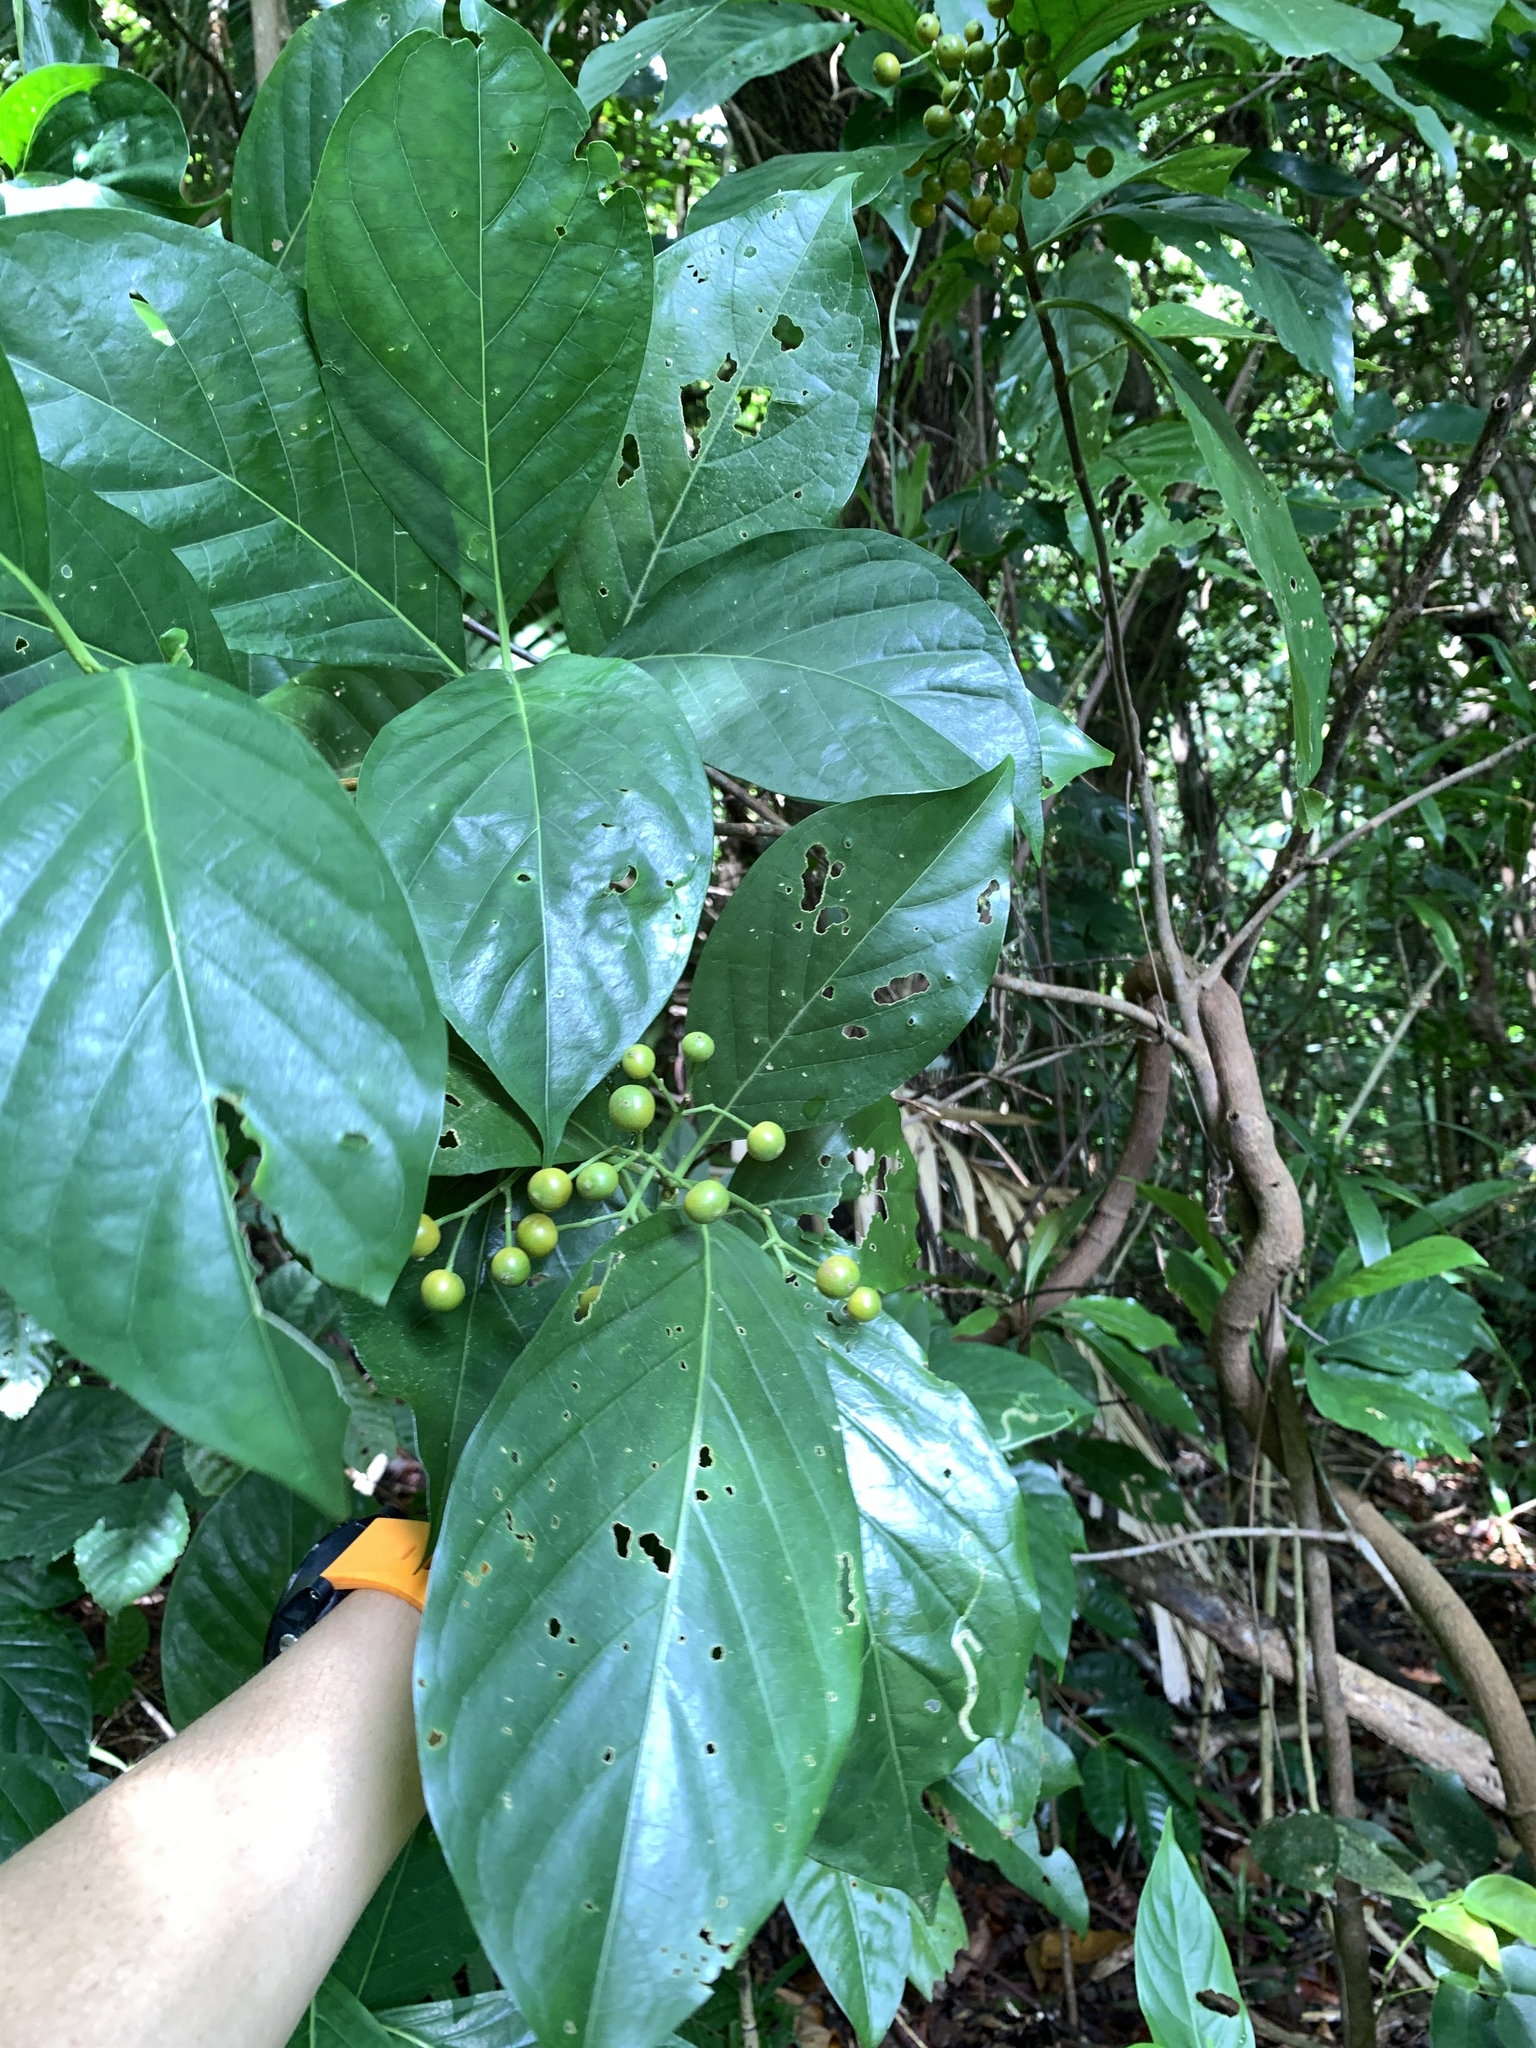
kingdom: Plantae
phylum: Tracheophyta
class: Magnoliopsida
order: Gentianales
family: Rubiaceae
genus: Tarenna
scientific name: Tarenna asiatica
